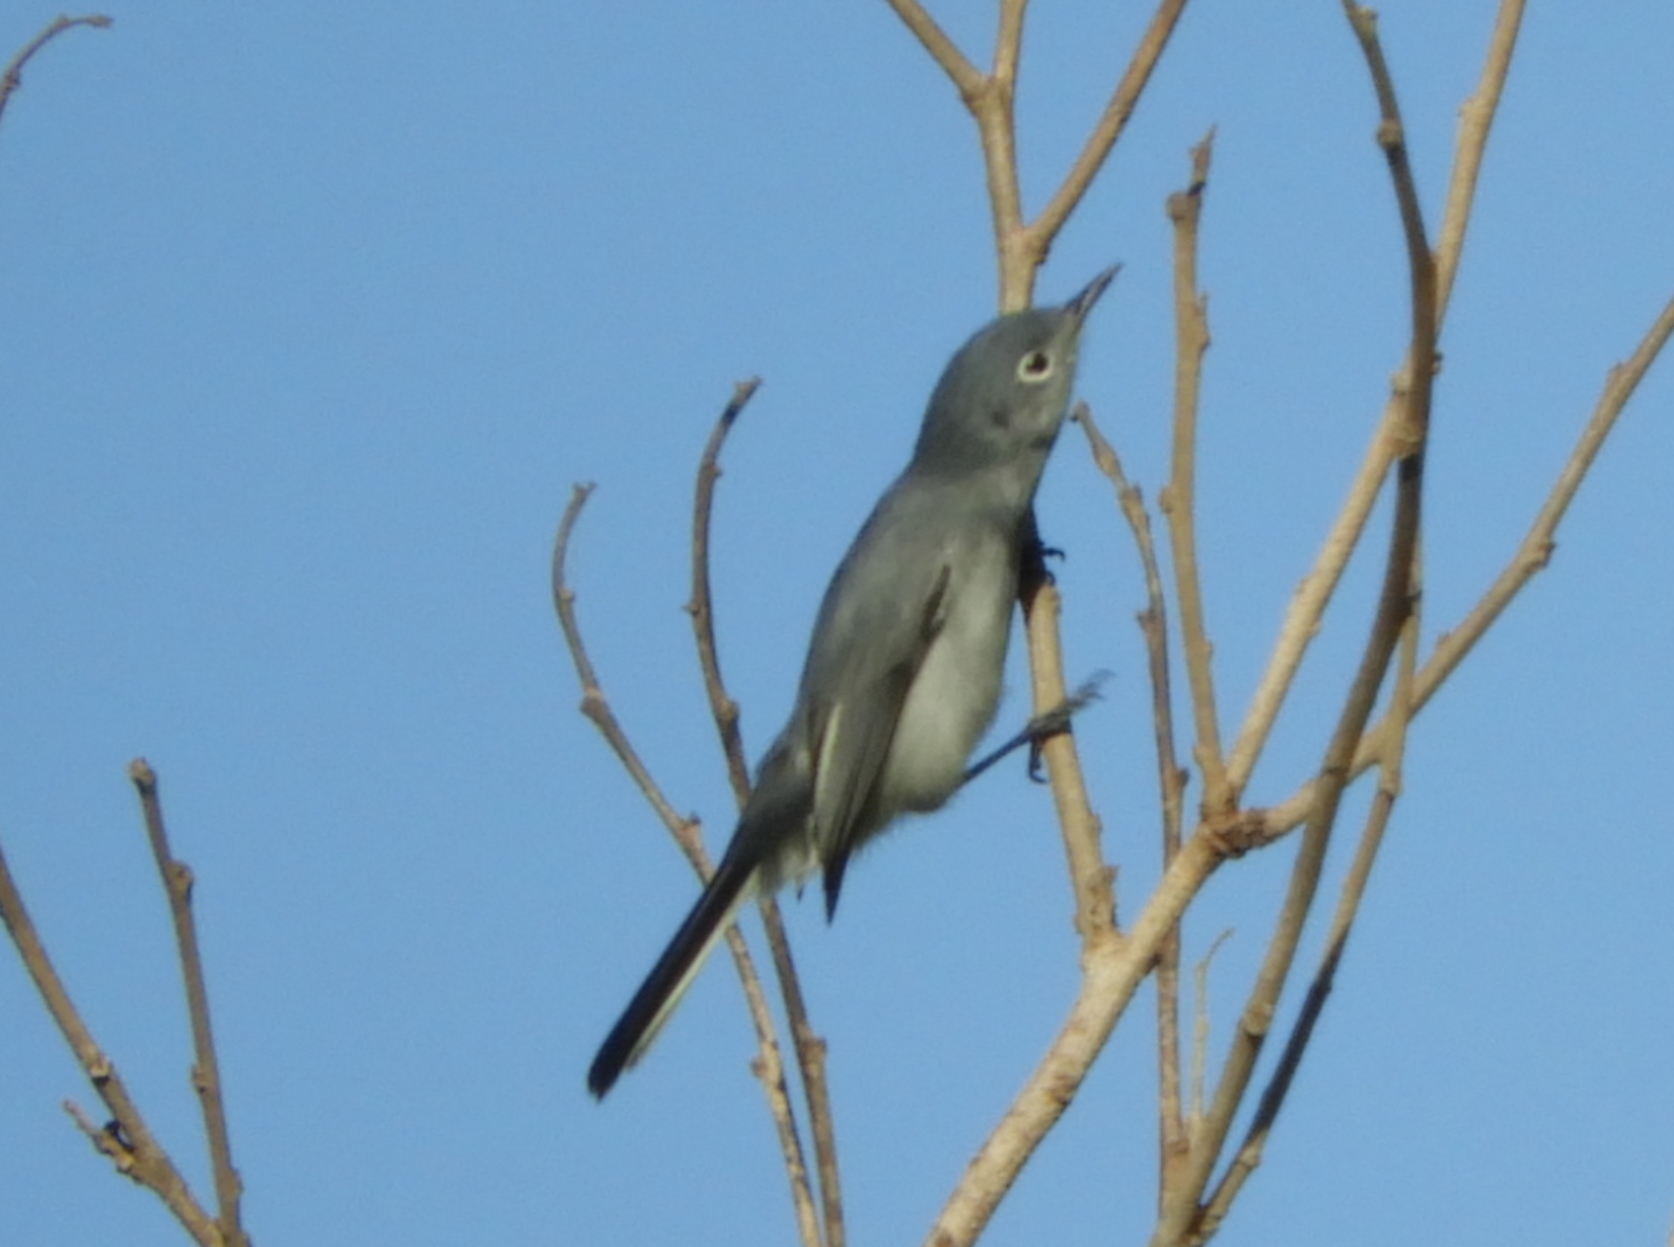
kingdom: Animalia
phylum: Chordata
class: Aves
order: Passeriformes
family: Polioptilidae
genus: Polioptila
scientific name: Polioptila caerulea
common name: Blue-gray gnatcatcher
